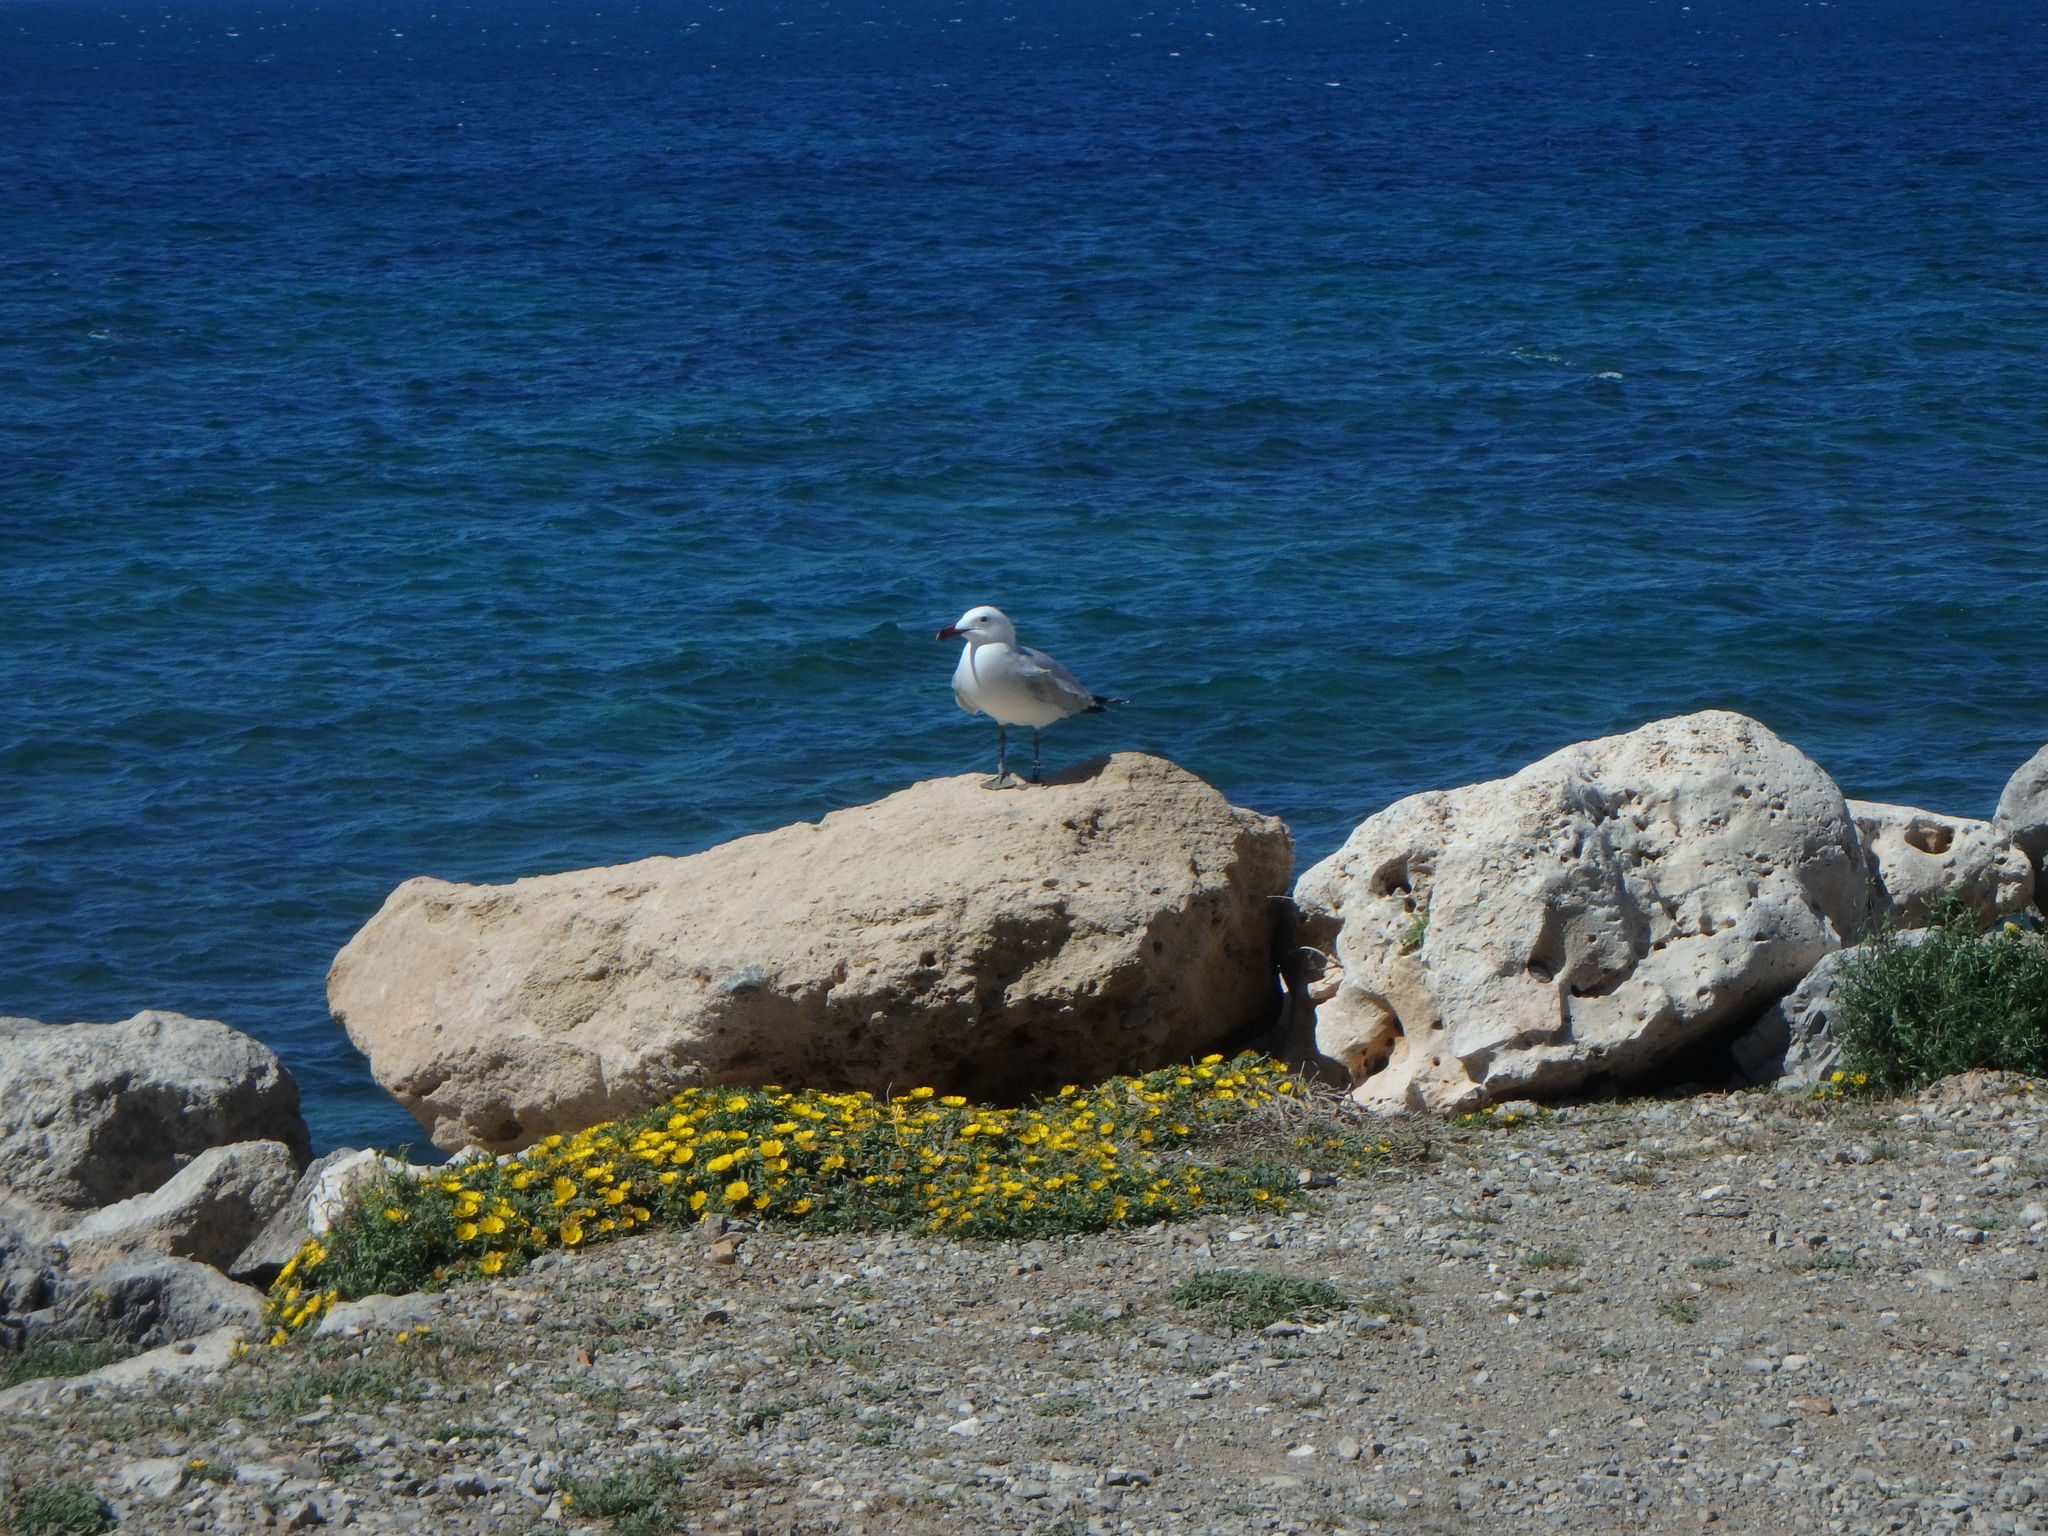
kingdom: Animalia
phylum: Chordata
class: Aves
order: Charadriiformes
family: Laridae
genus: Ichthyaetus
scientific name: Ichthyaetus audouinii
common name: Audouin's gull
